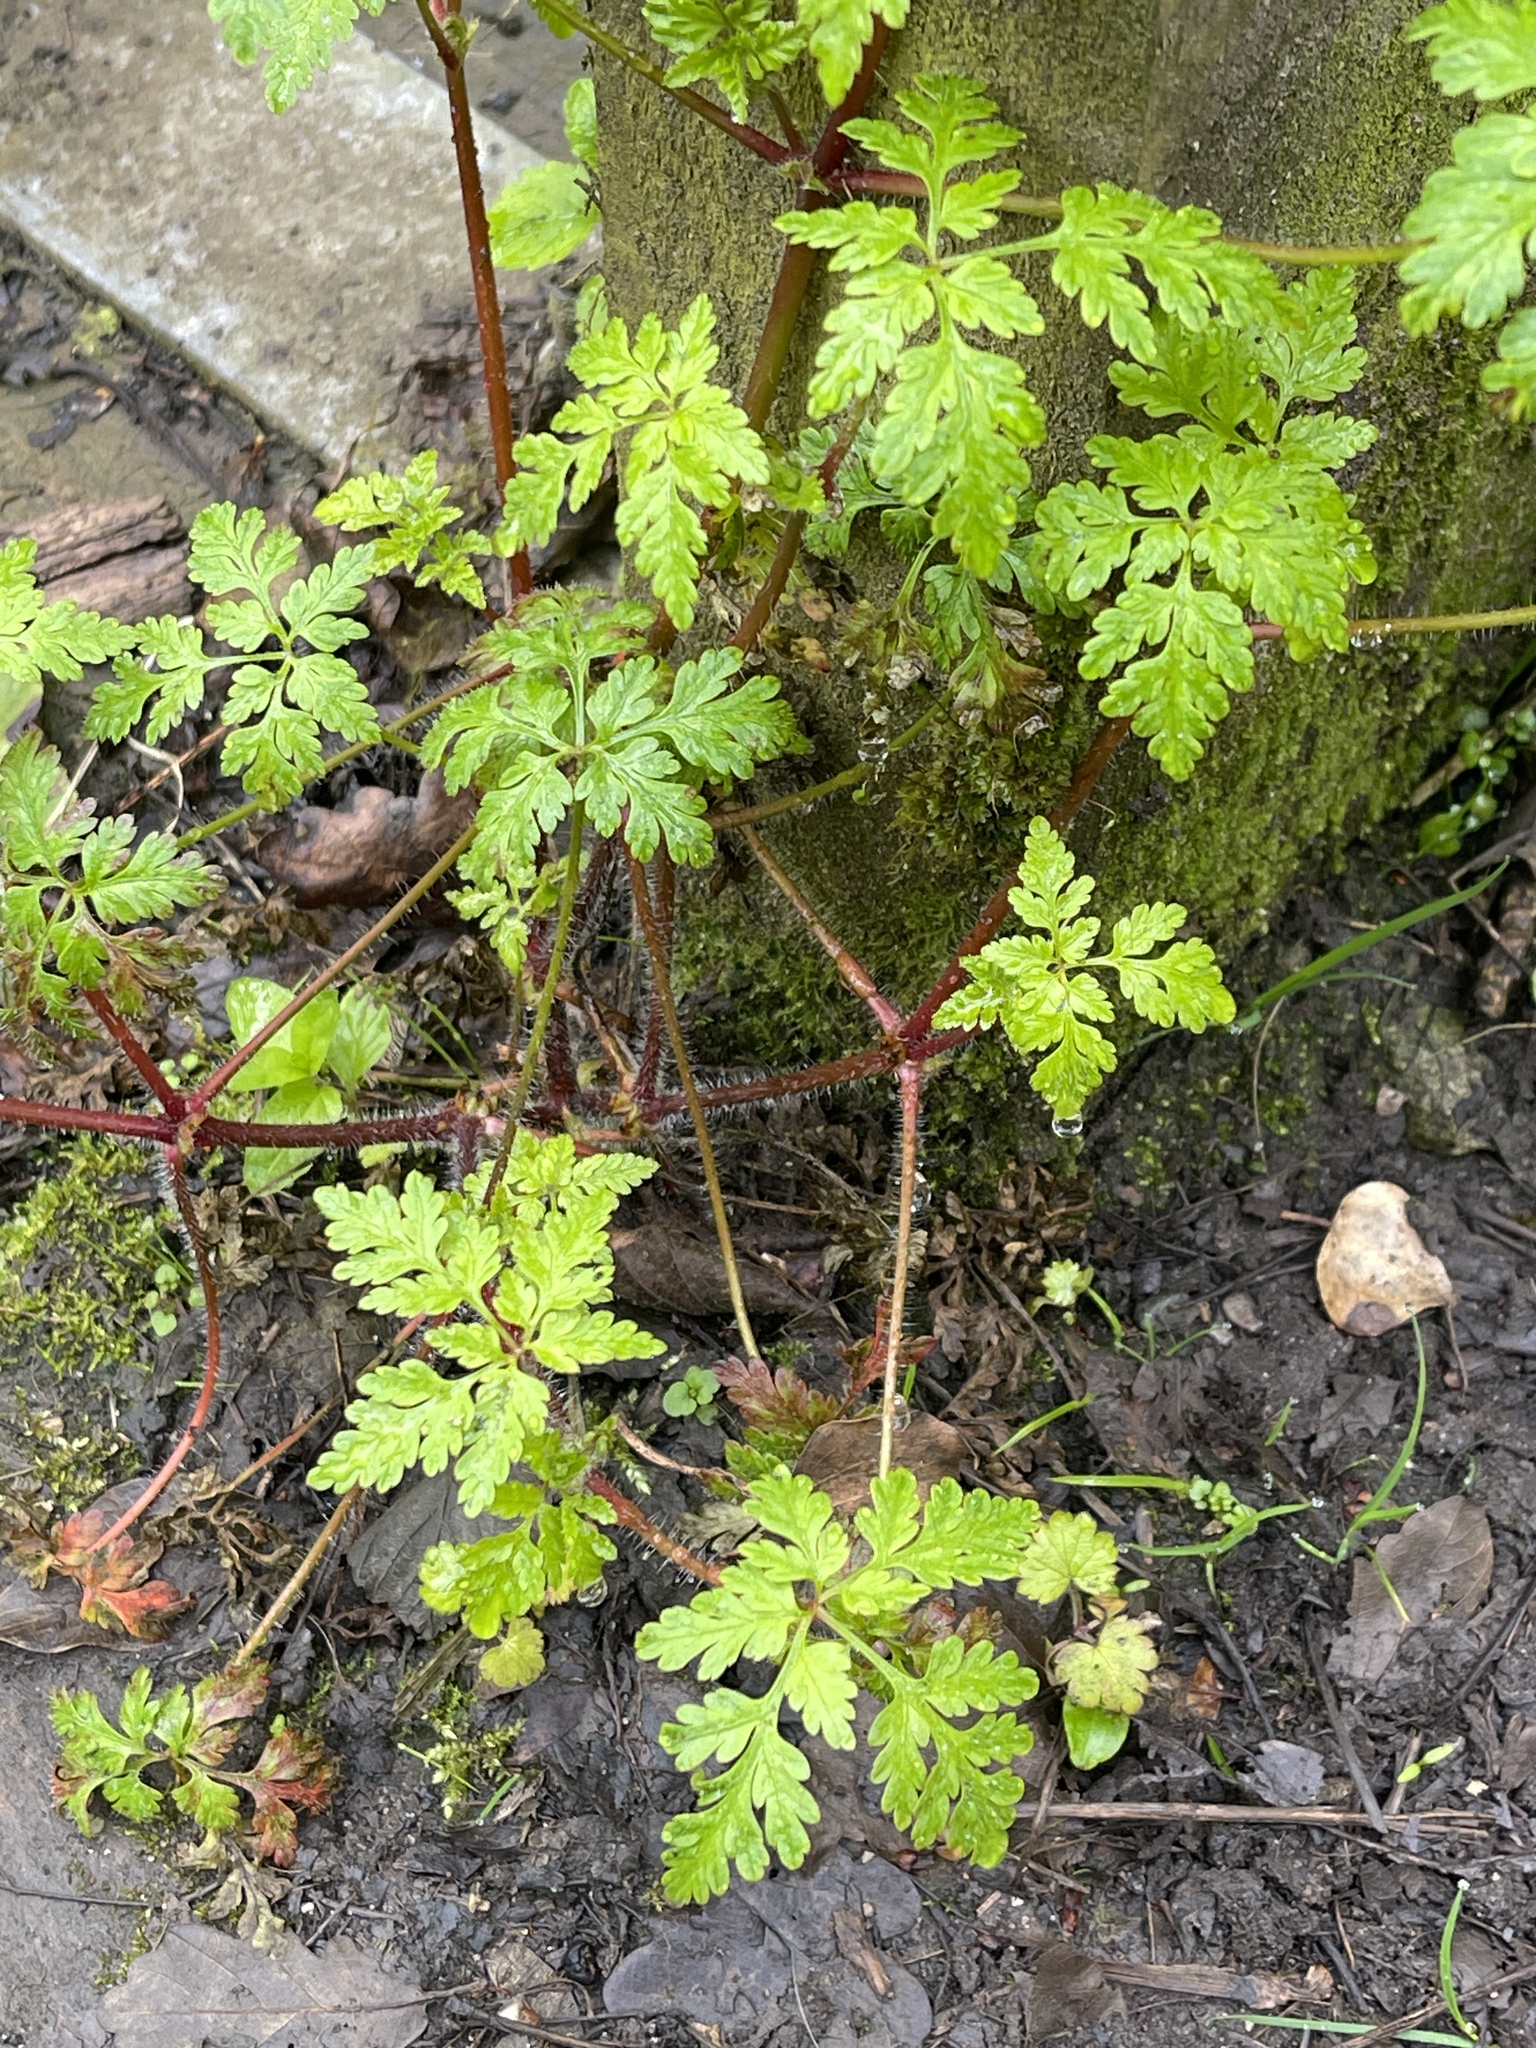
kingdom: Plantae
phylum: Tracheophyta
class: Magnoliopsida
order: Geraniales
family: Geraniaceae
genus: Geranium
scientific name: Geranium robertianum
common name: Herb-robert
